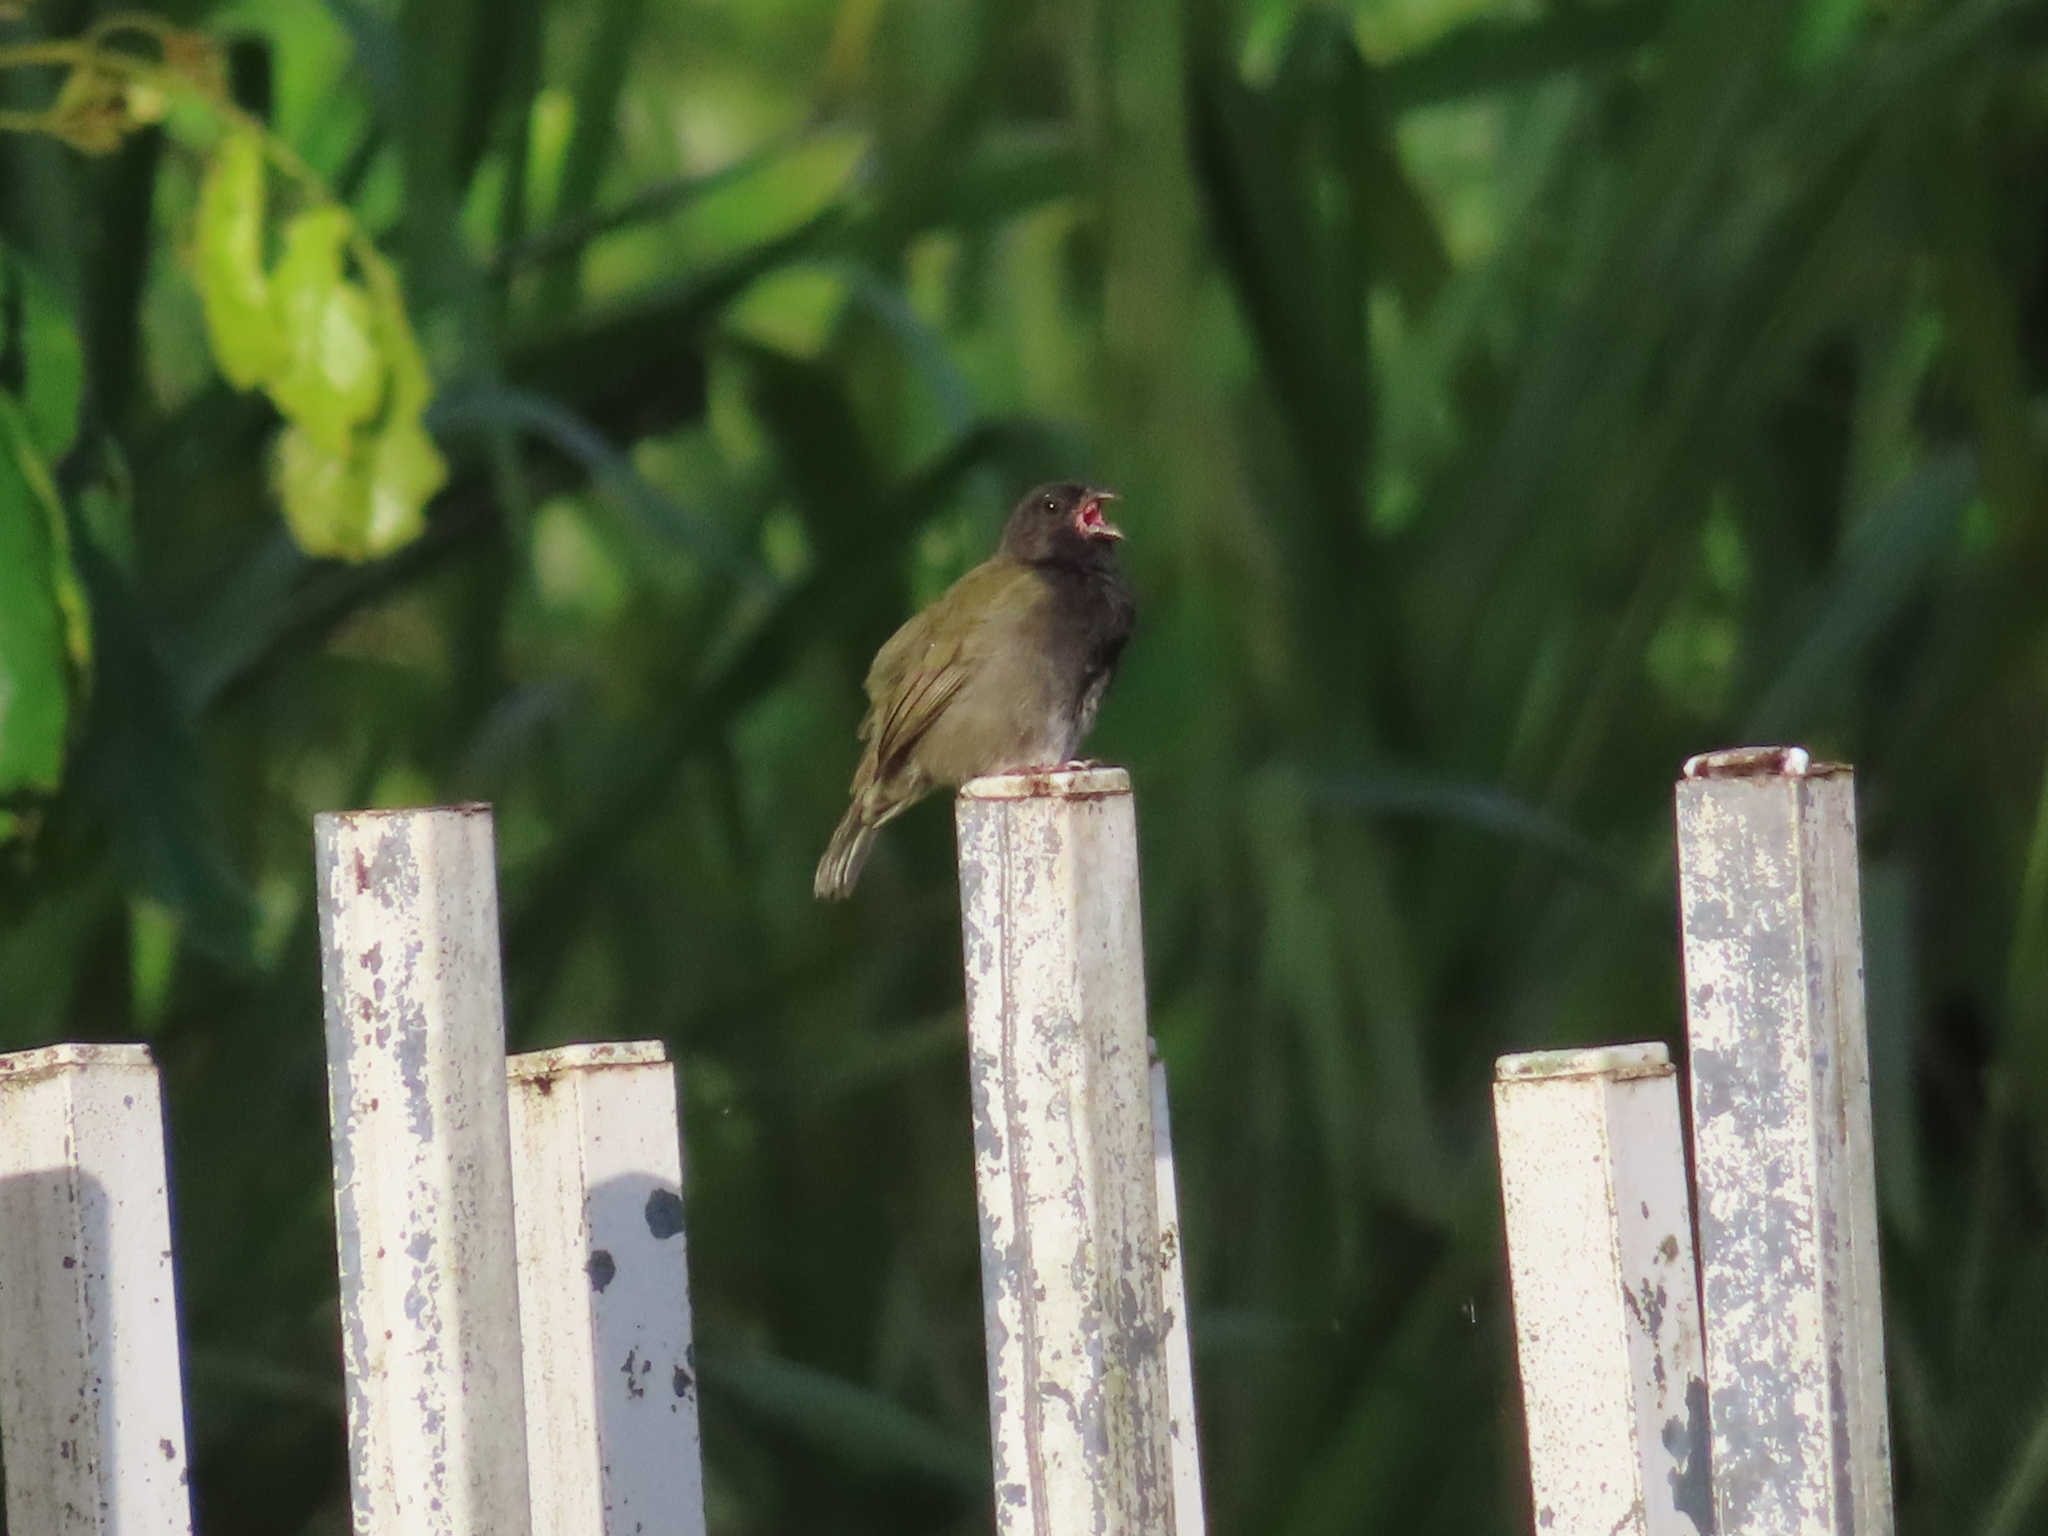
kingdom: Animalia
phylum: Chordata
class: Aves
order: Passeriformes
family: Thraupidae
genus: Melanospiza
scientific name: Melanospiza bicolor
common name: Black-faced grassquit
